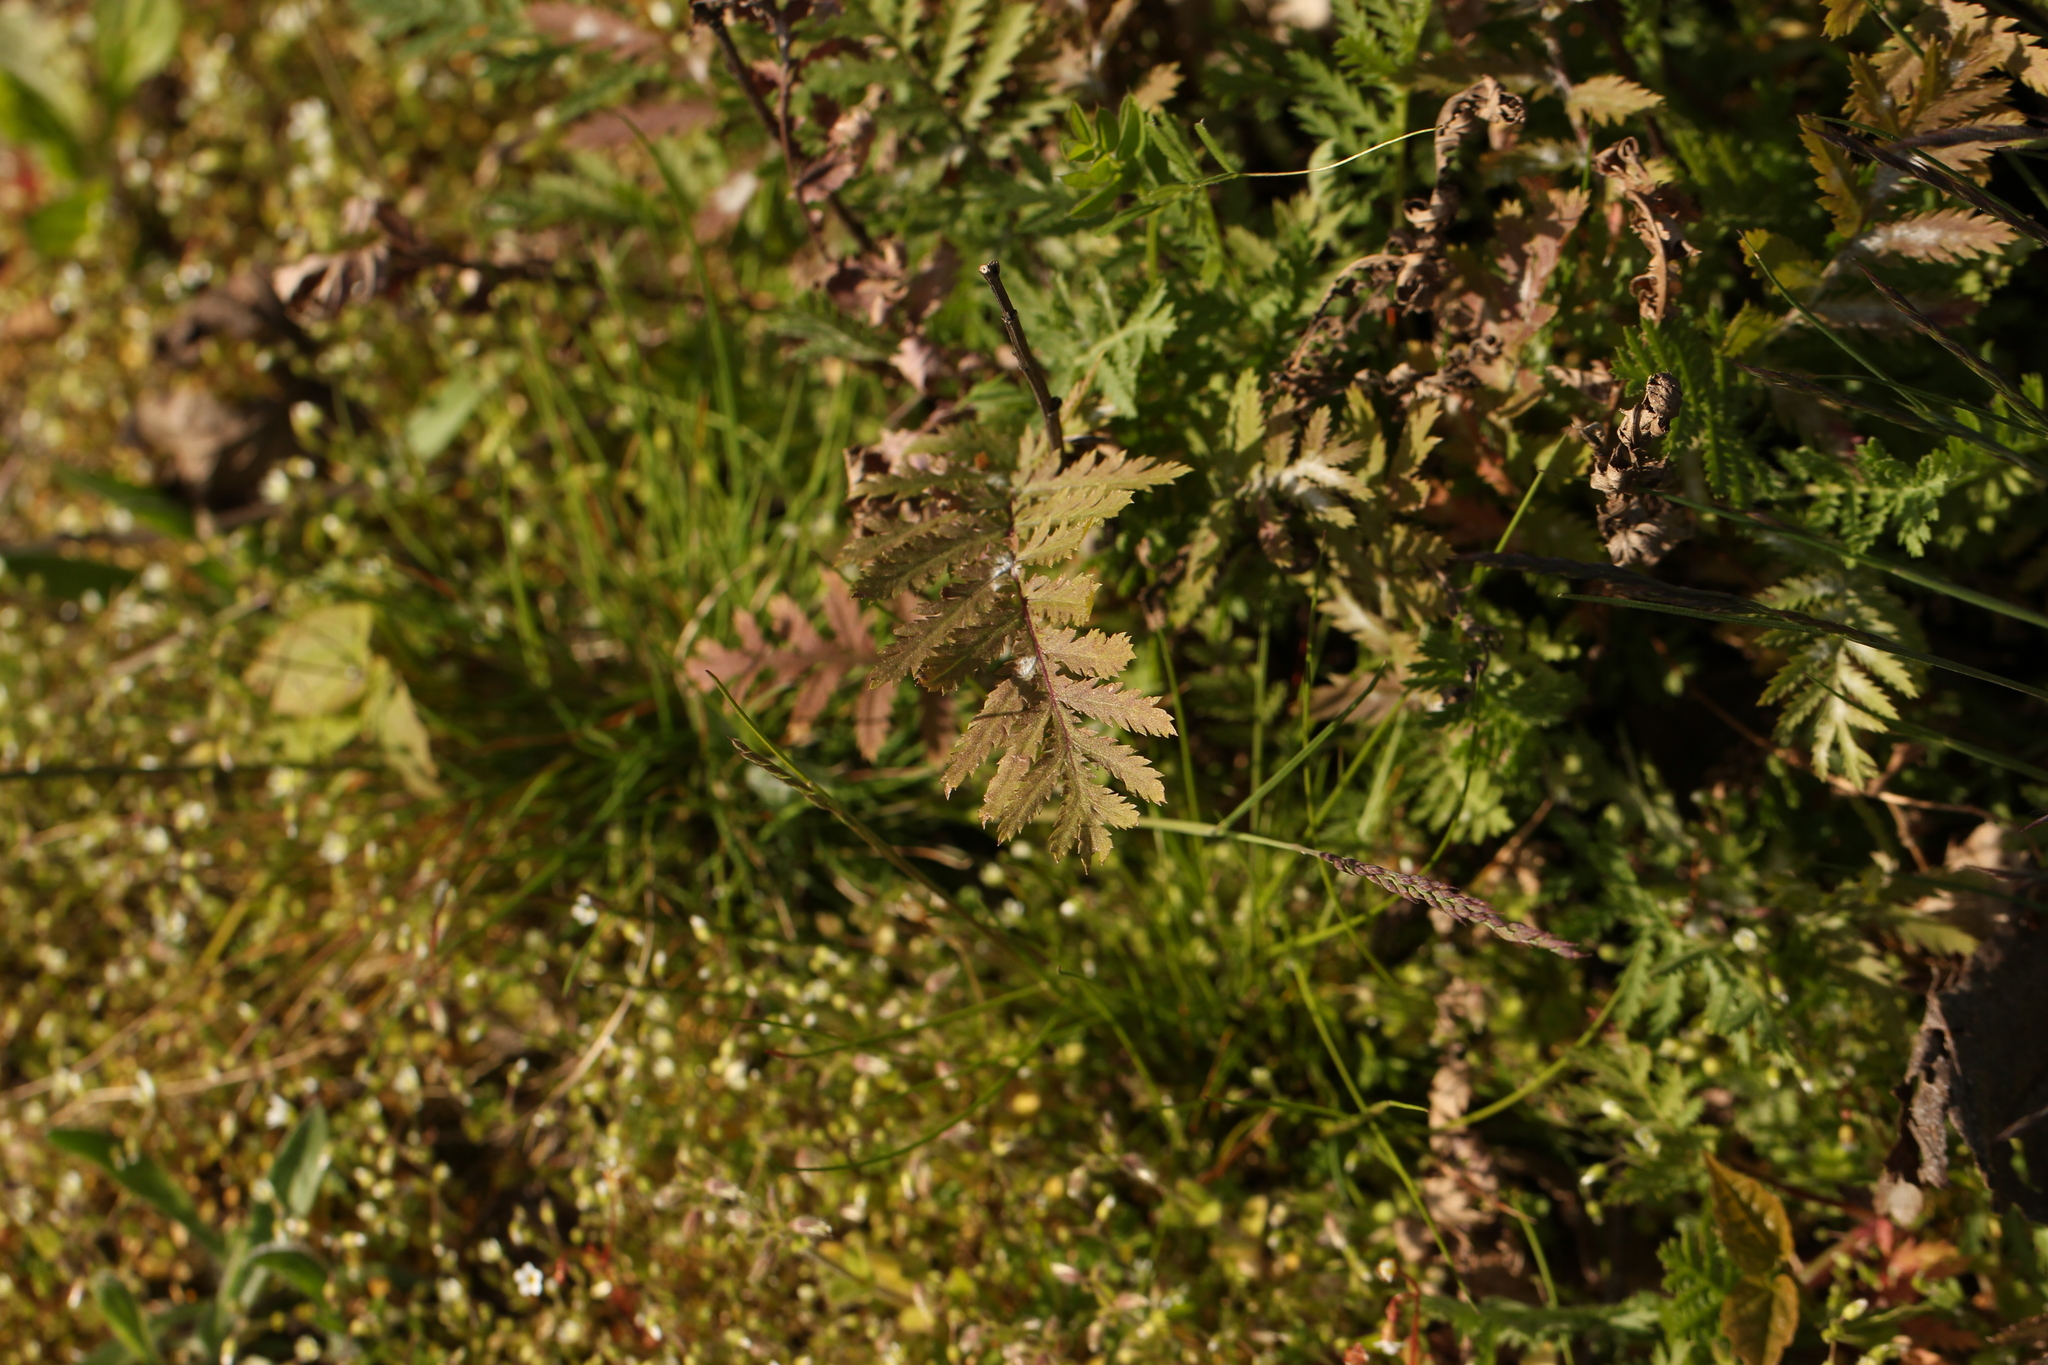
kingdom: Plantae
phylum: Tracheophyta
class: Magnoliopsida
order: Asterales
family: Asteraceae
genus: Tanacetum
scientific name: Tanacetum vulgare
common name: Common tansy
